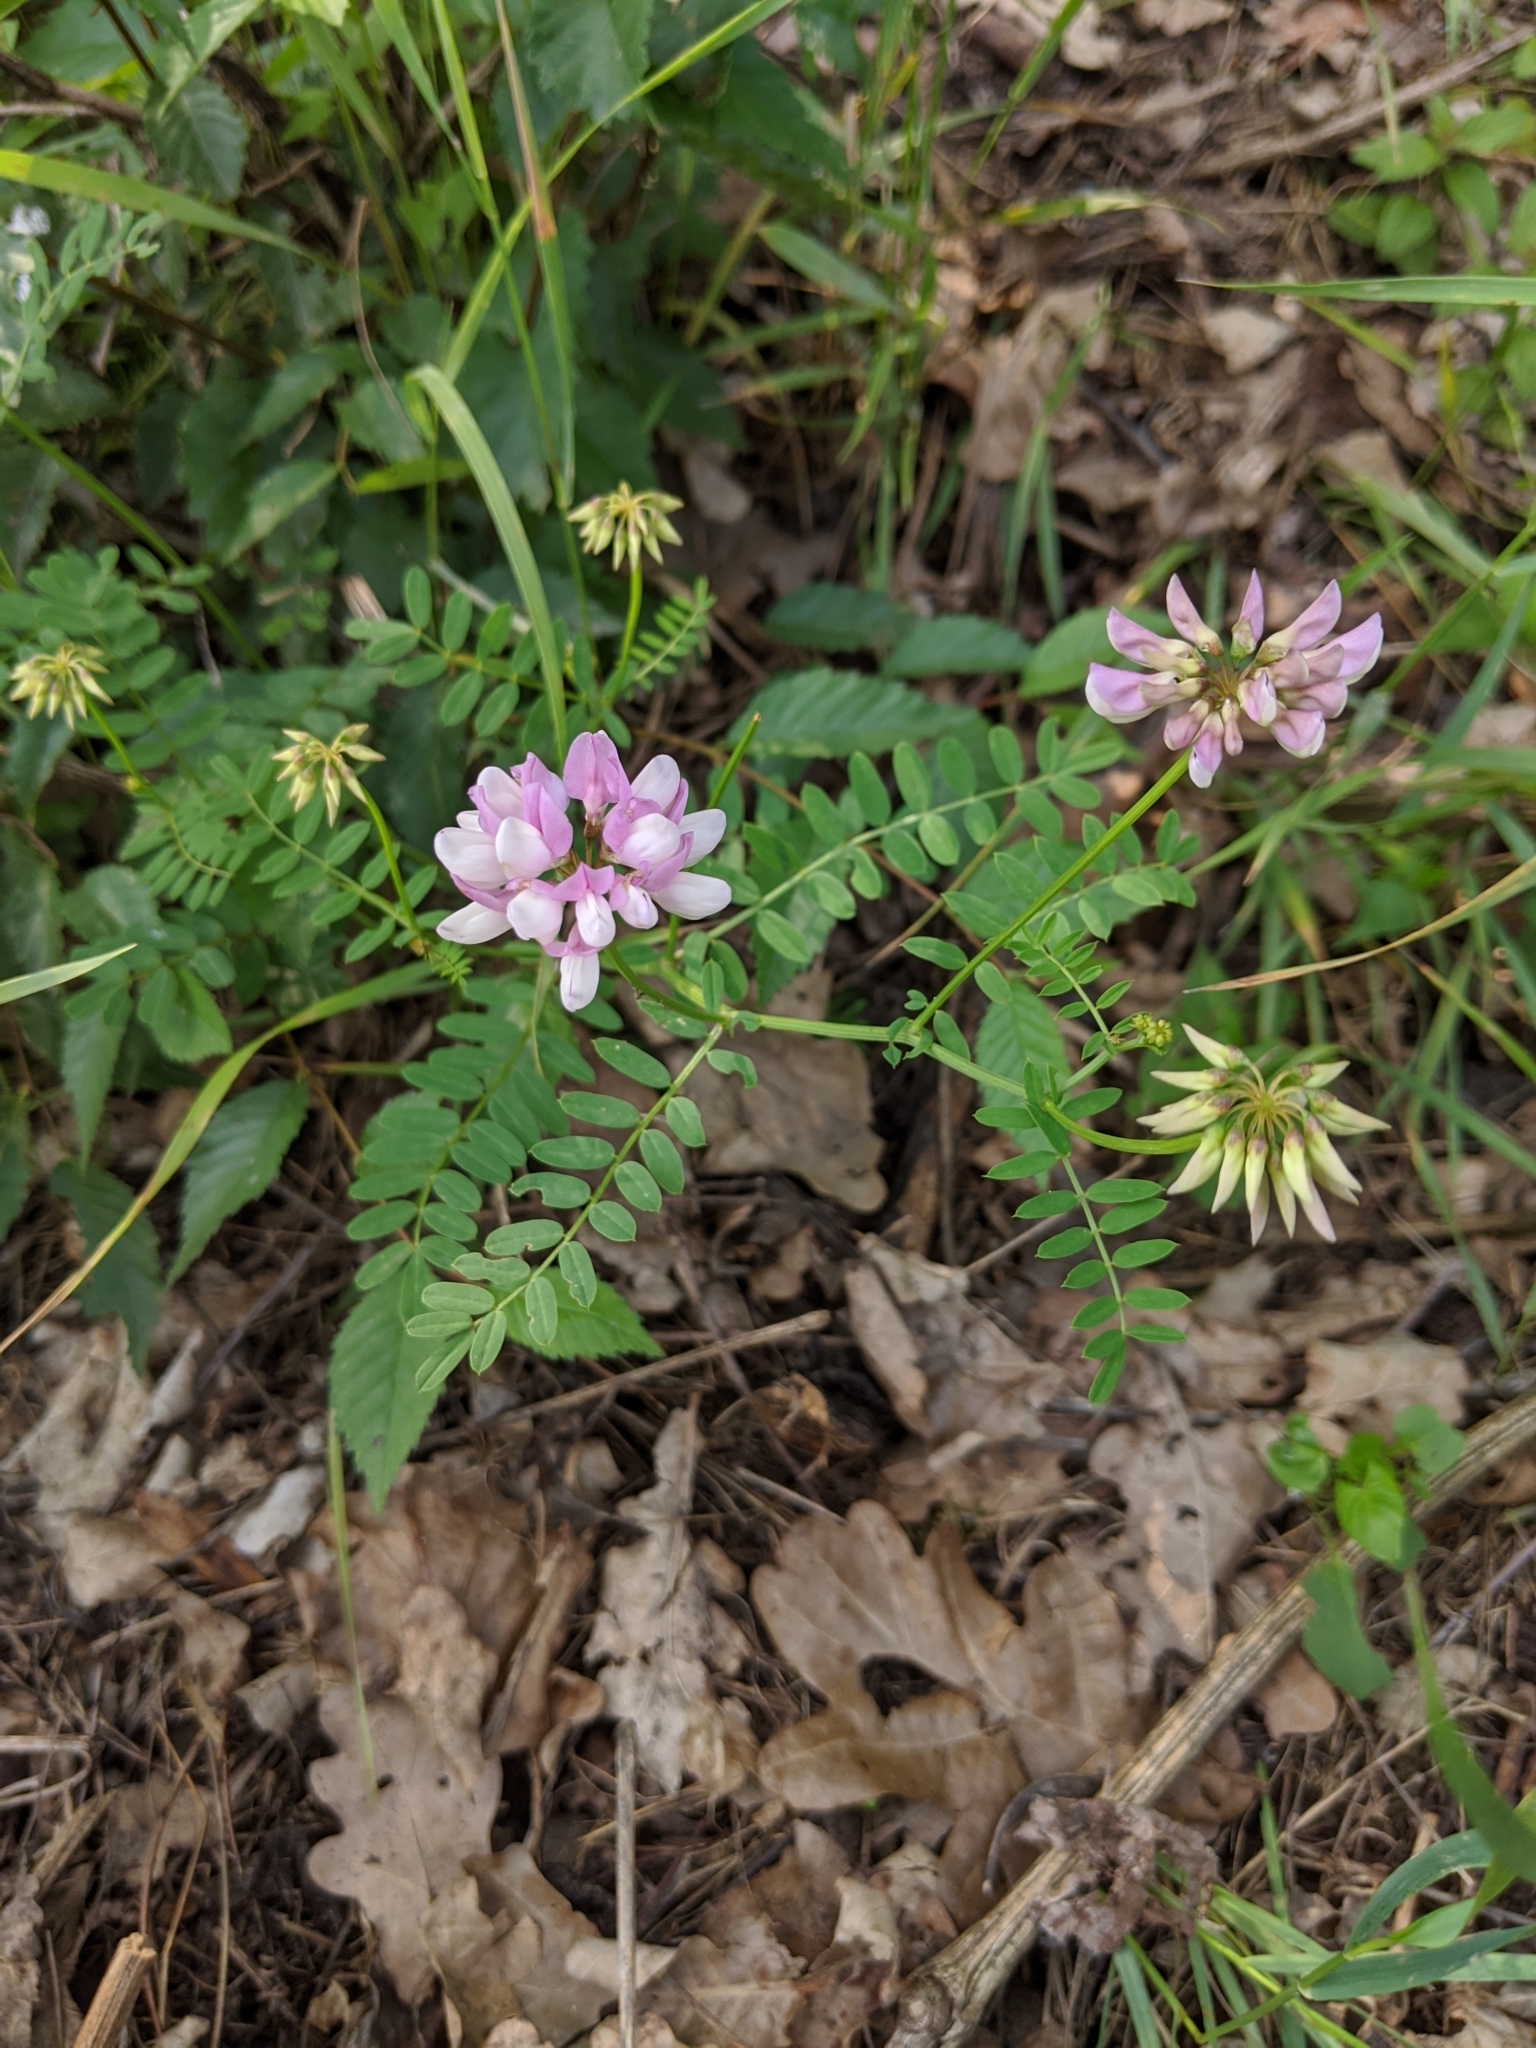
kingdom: Plantae
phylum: Tracheophyta
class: Magnoliopsida
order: Fabales
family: Fabaceae
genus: Coronilla
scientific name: Coronilla varia
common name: Crownvetch
